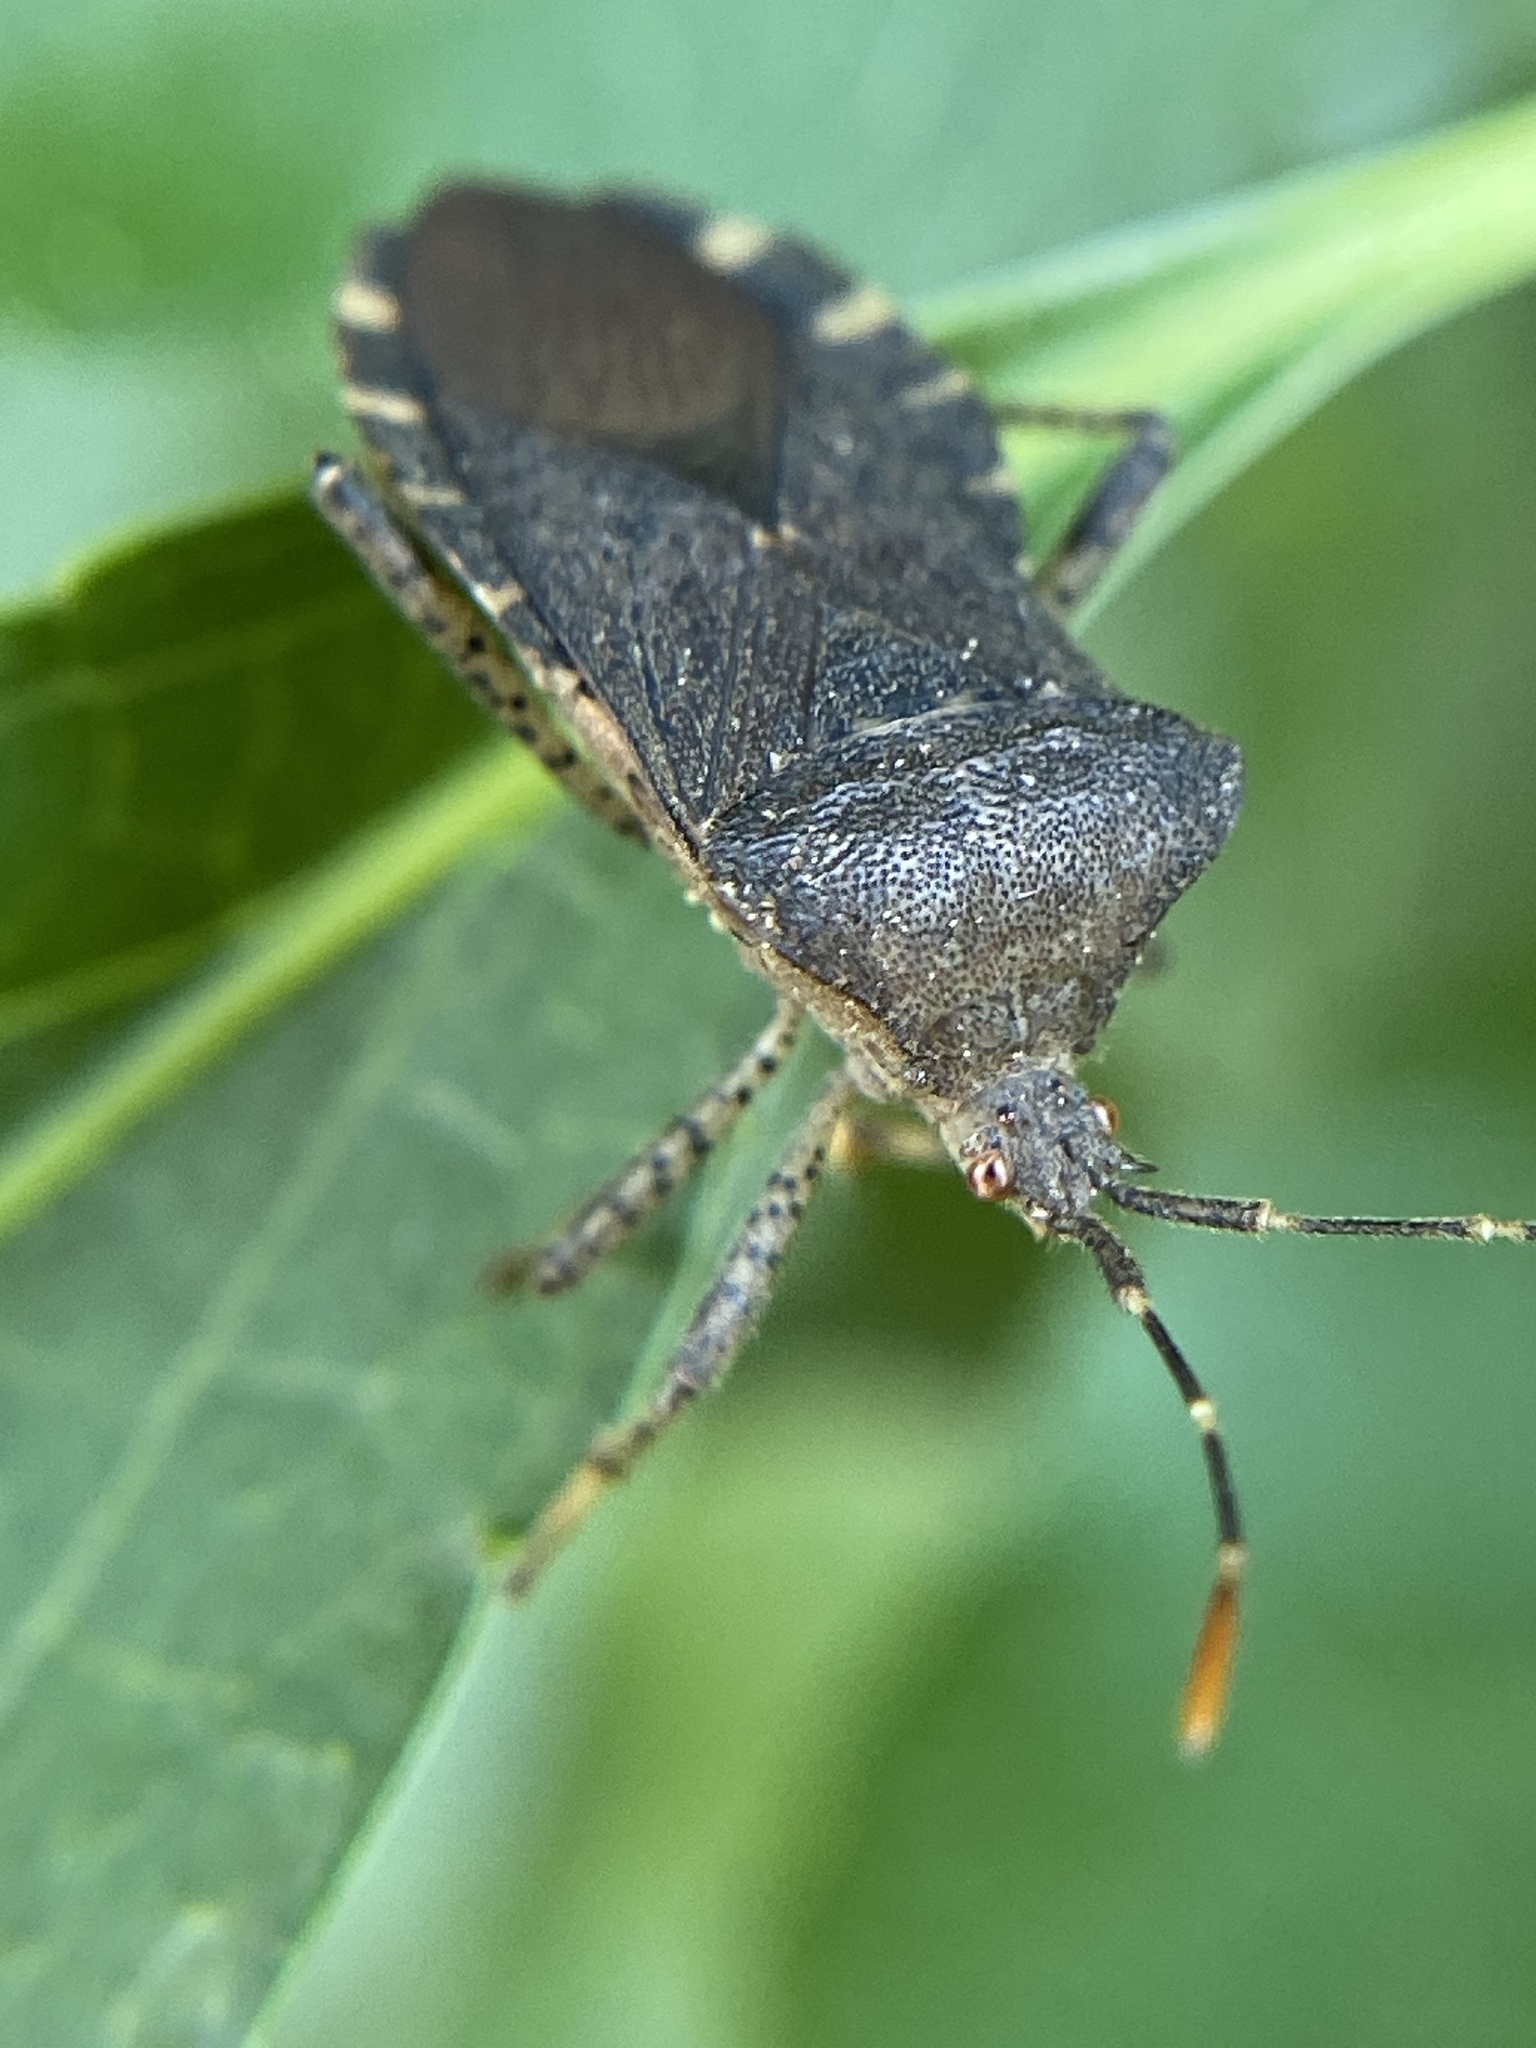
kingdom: Animalia
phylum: Arthropoda
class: Insecta
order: Hemiptera
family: Coreidae
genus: Anasa
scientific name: Anasa armigera
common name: Horned squash bug
